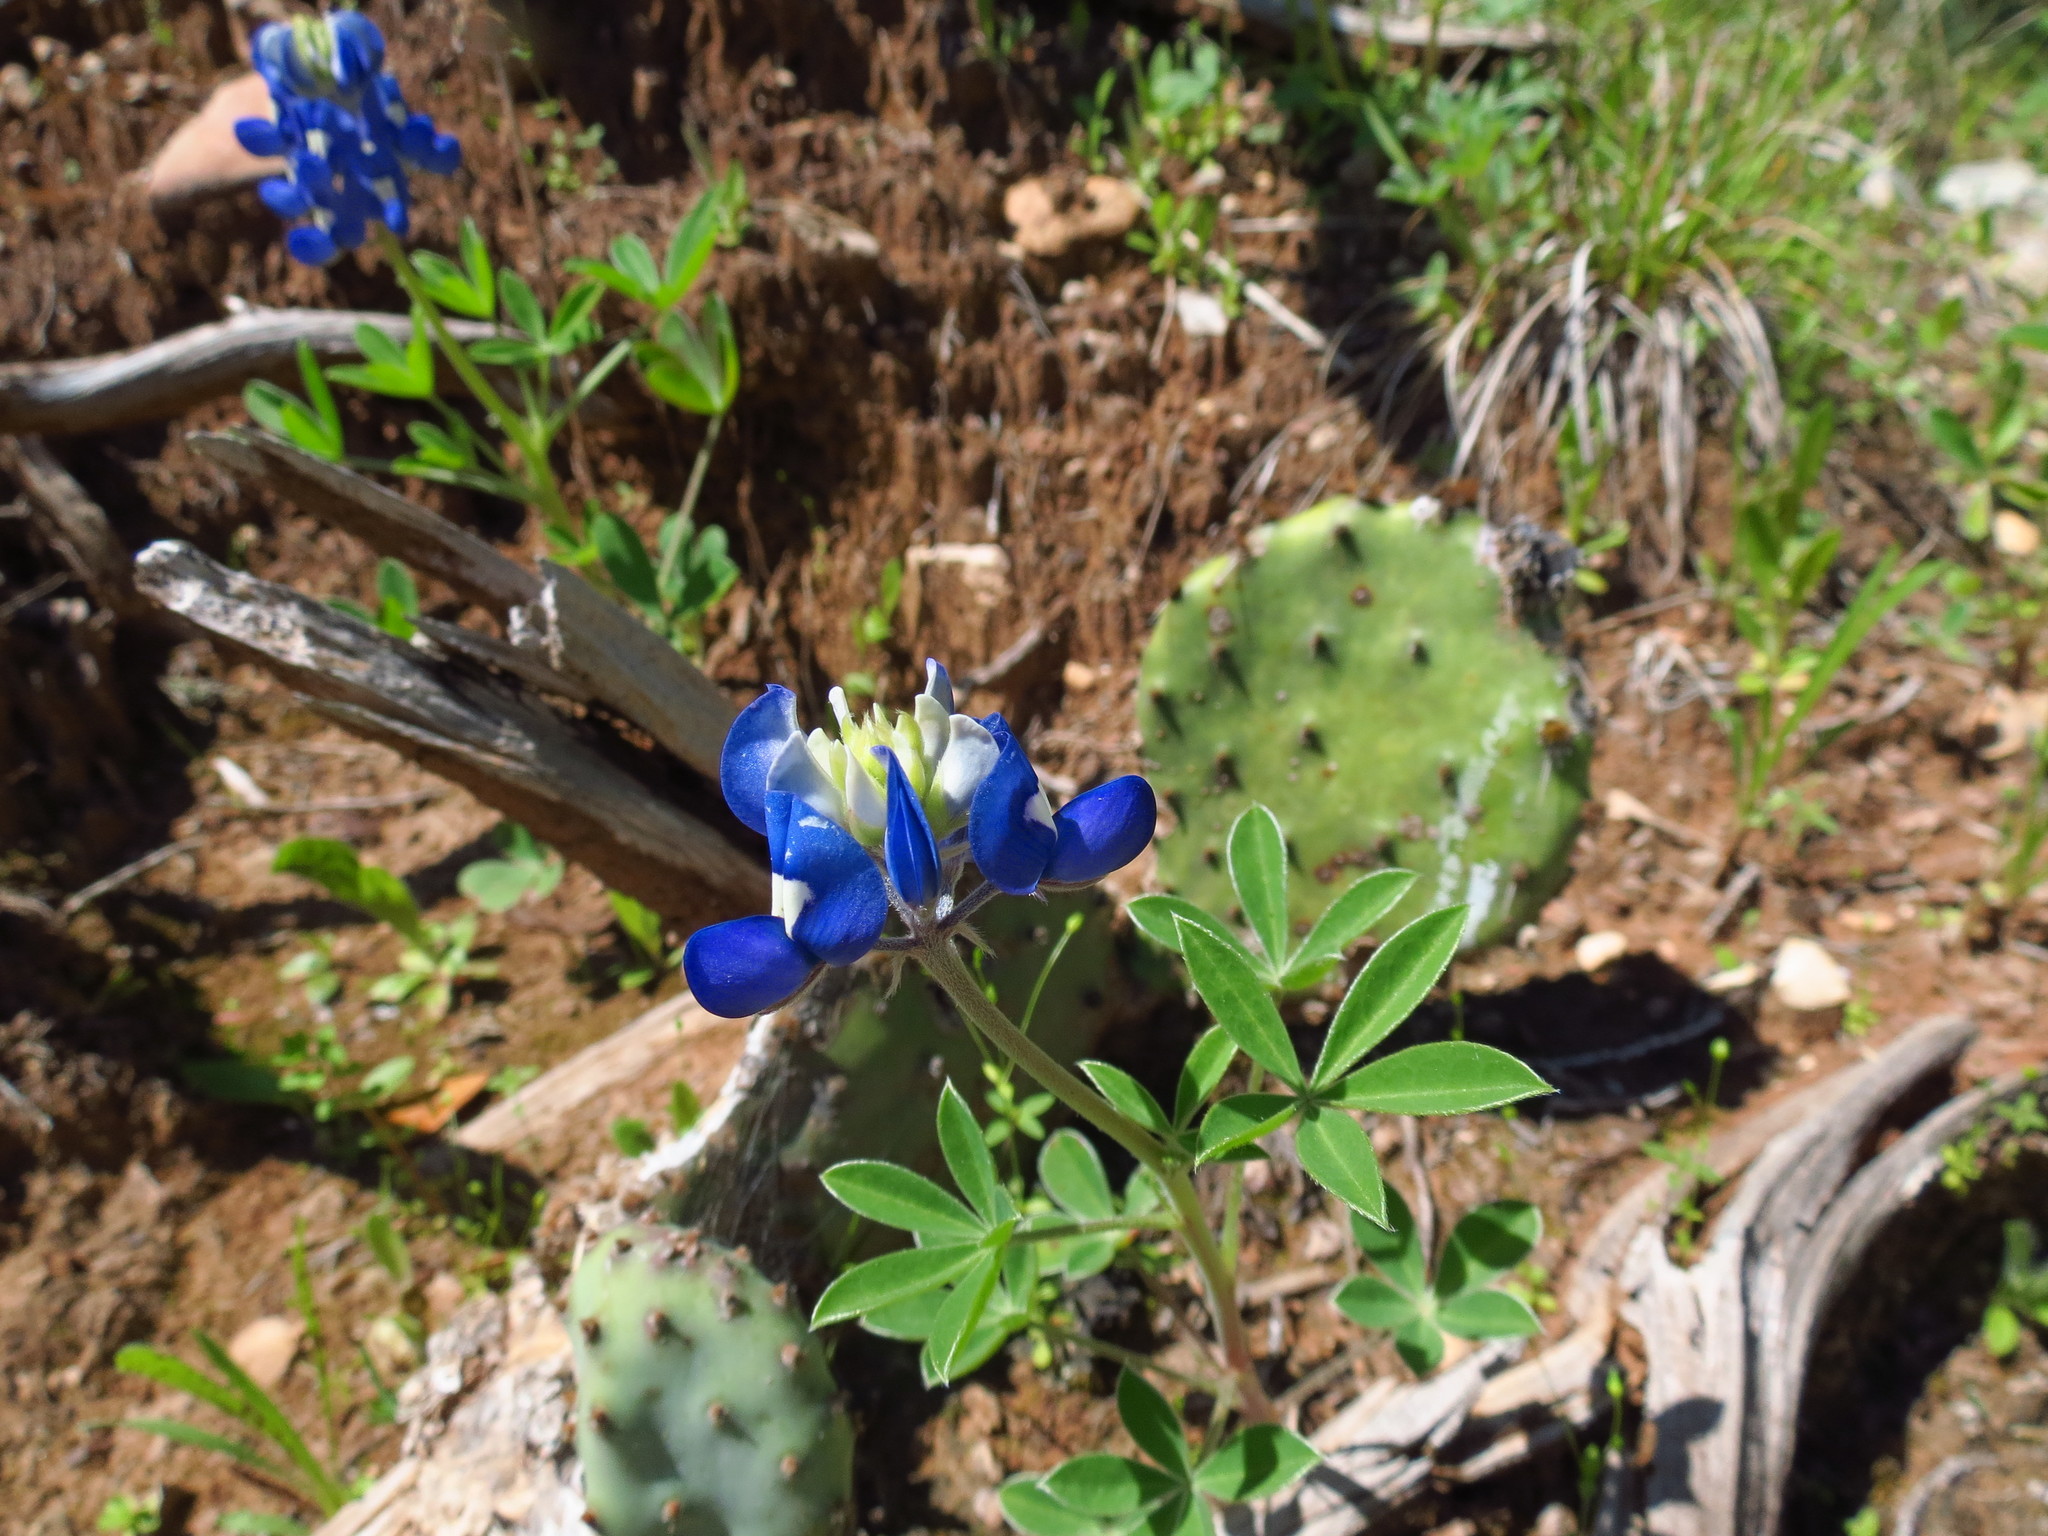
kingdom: Plantae
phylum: Tracheophyta
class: Magnoliopsida
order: Fabales
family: Fabaceae
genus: Lupinus
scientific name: Lupinus texensis
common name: Texas bluebonnet
